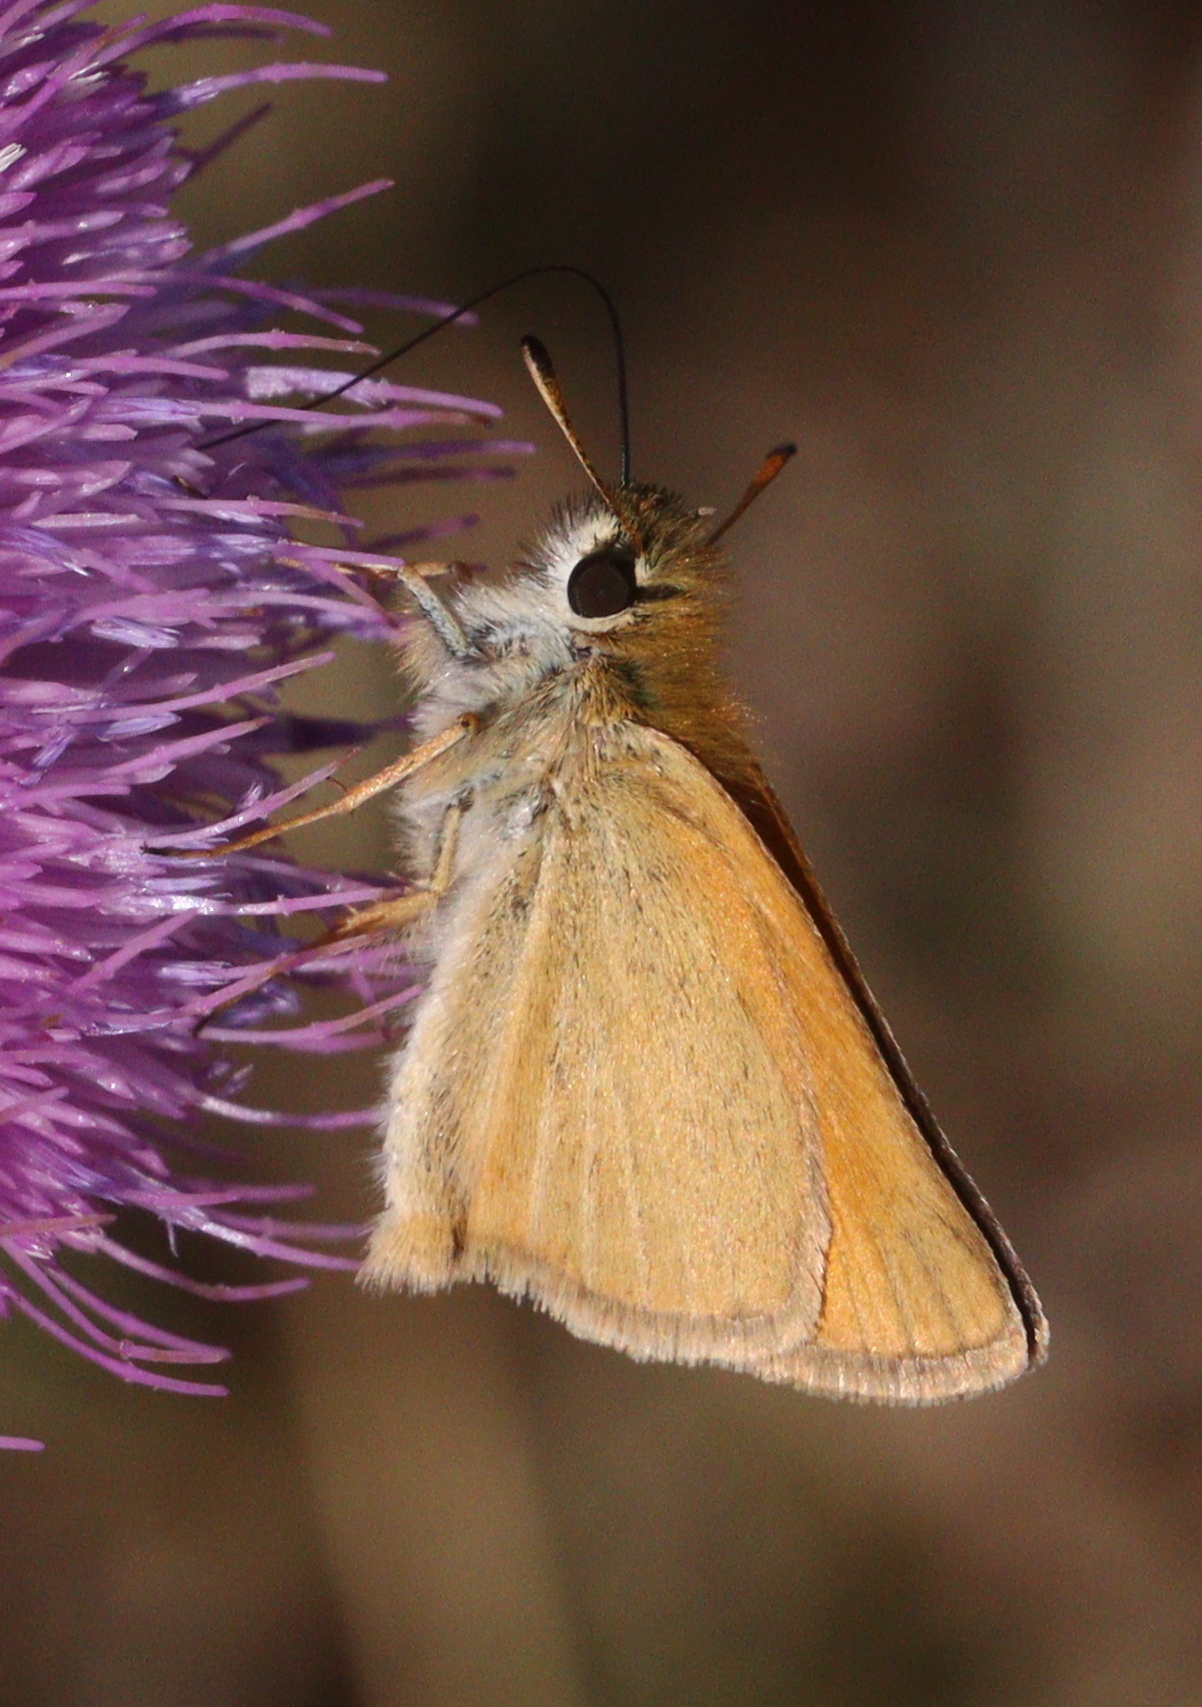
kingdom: Animalia
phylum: Arthropoda
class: Insecta
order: Lepidoptera
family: Hesperiidae
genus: Thymelicus
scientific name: Thymelicus lineola
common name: Essex skipper
